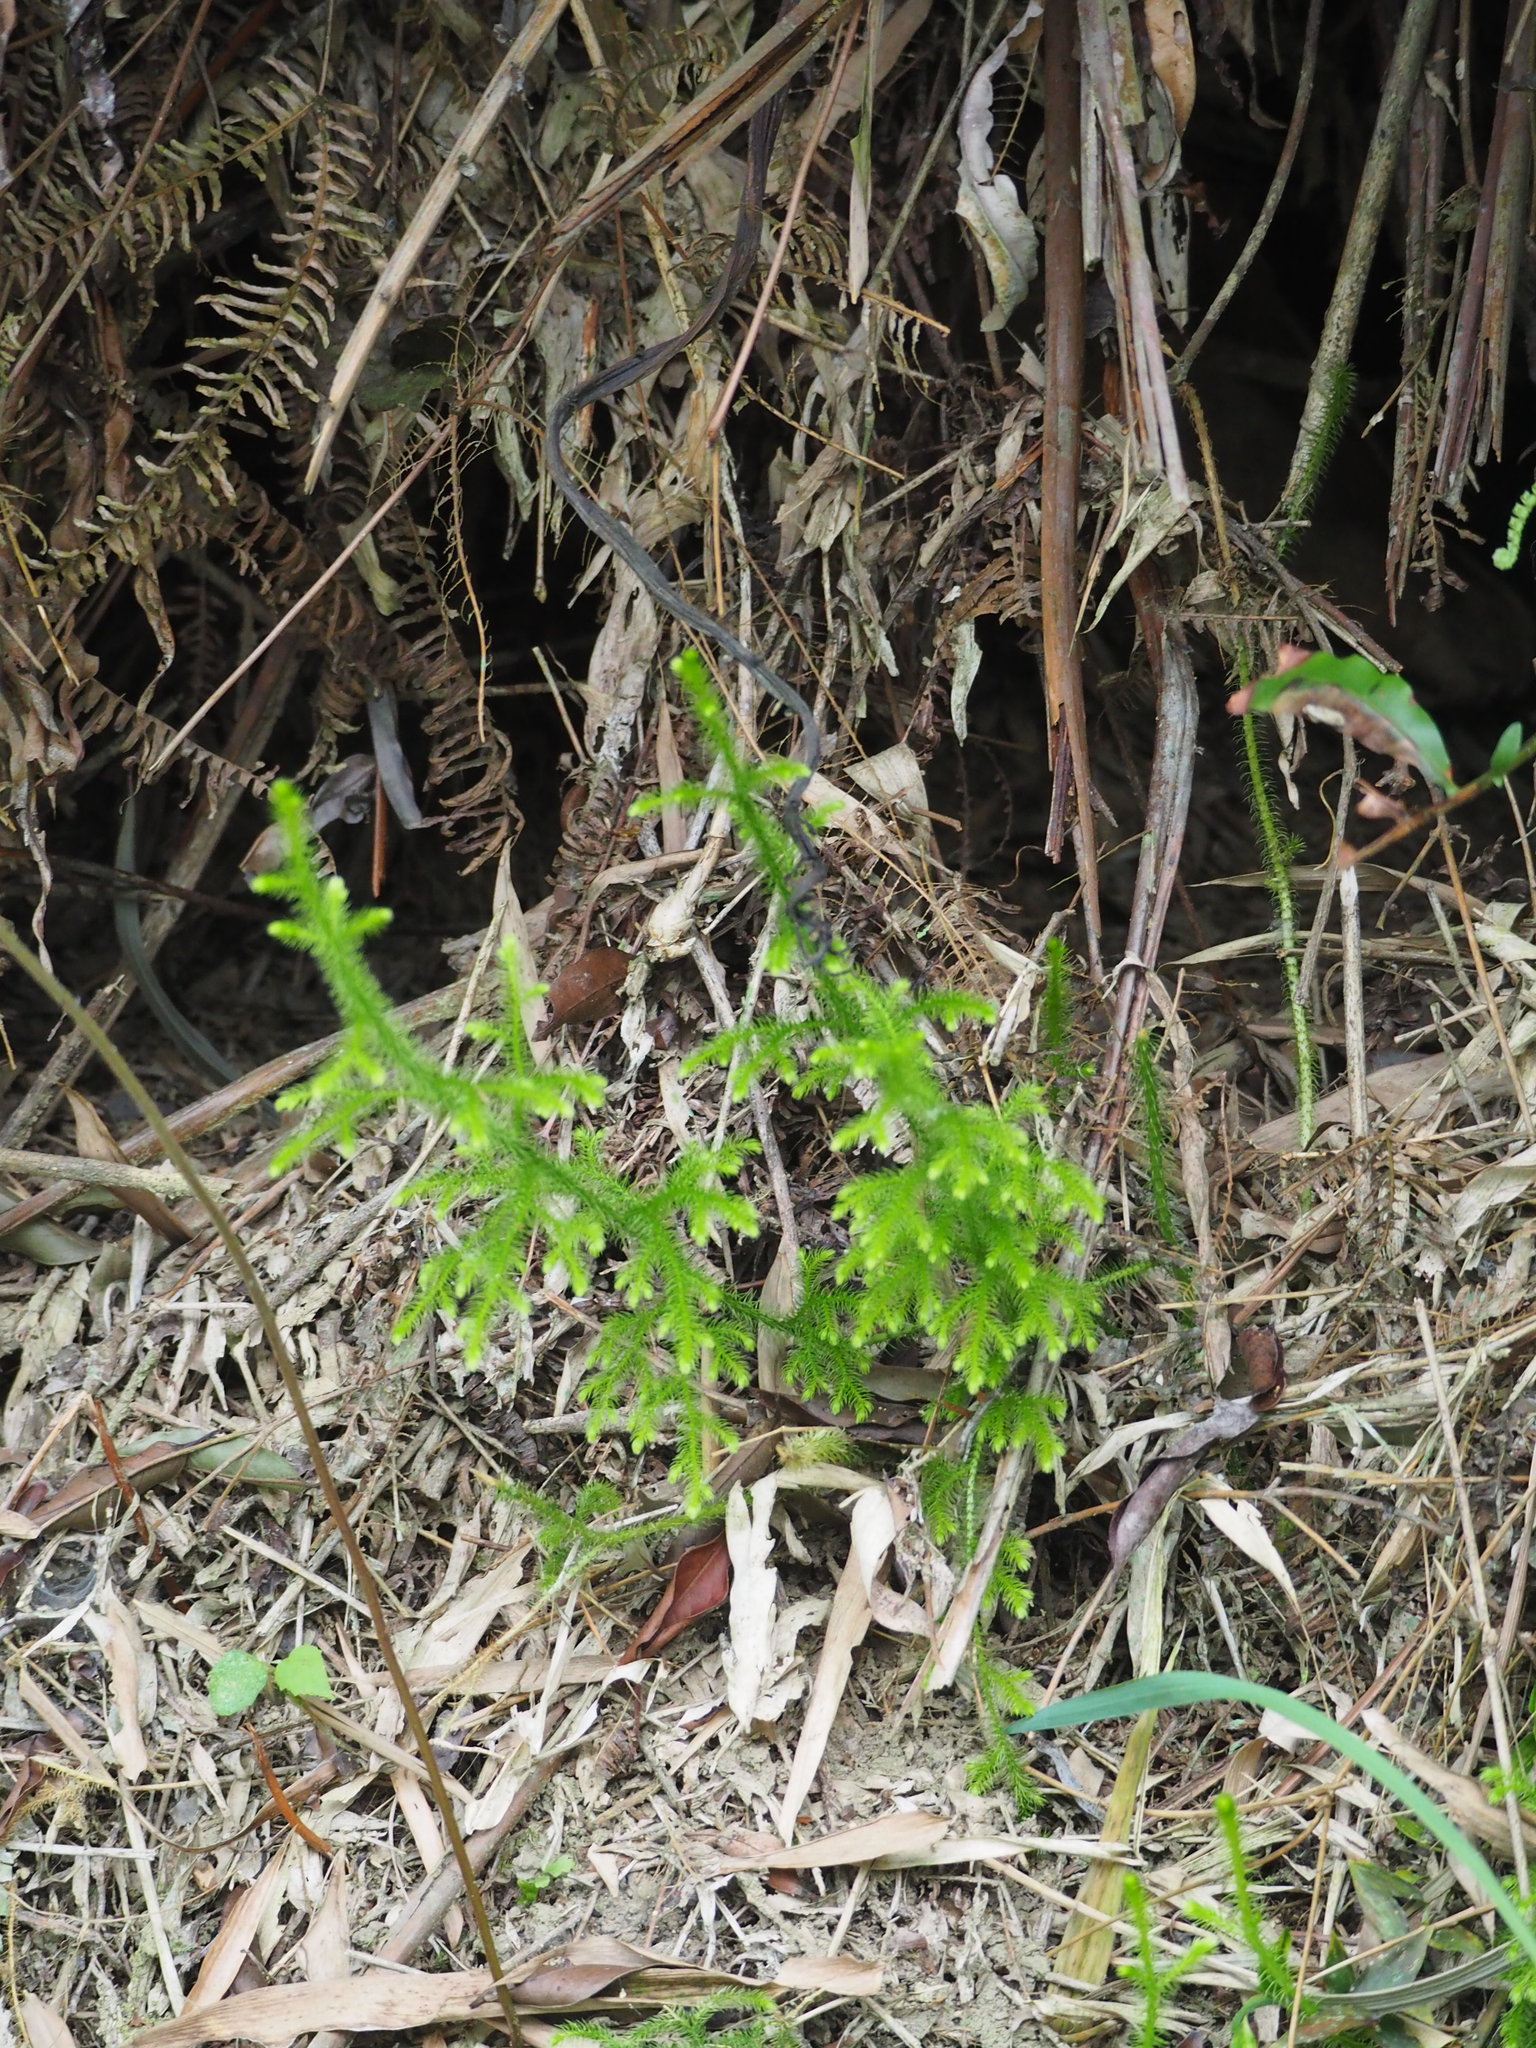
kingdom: Plantae
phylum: Tracheophyta
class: Lycopodiopsida
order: Lycopodiales
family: Lycopodiaceae
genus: Palhinhaea
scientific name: Palhinhaea cernua
